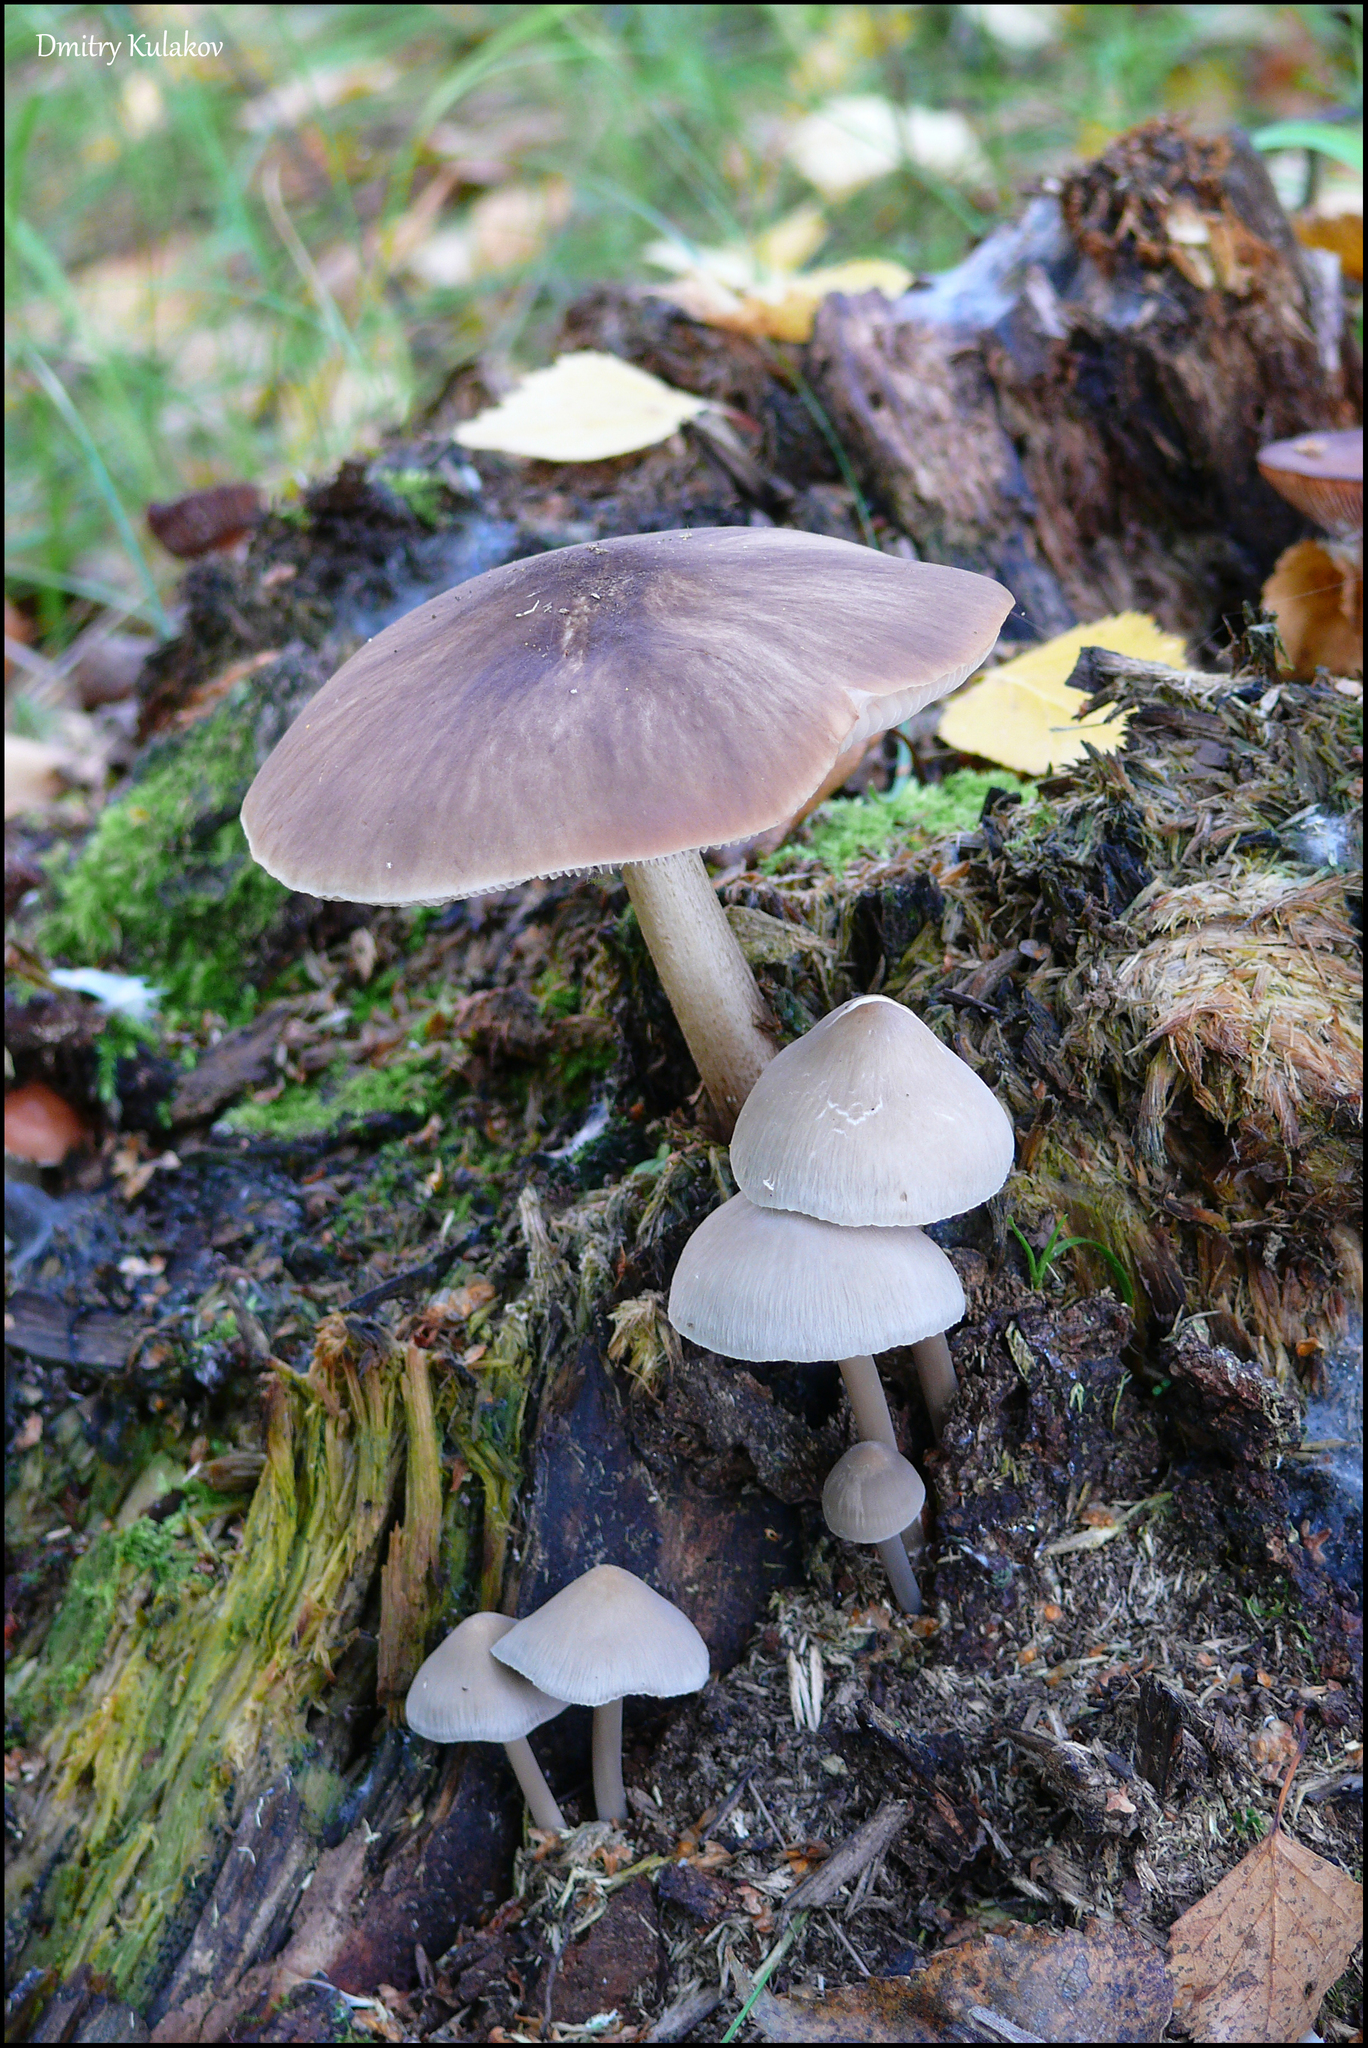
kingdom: Fungi
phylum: Basidiomycota
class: Agaricomycetes
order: Agaricales
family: Pluteaceae
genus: Pluteus
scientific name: Pluteus cervinus
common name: Deer shield
